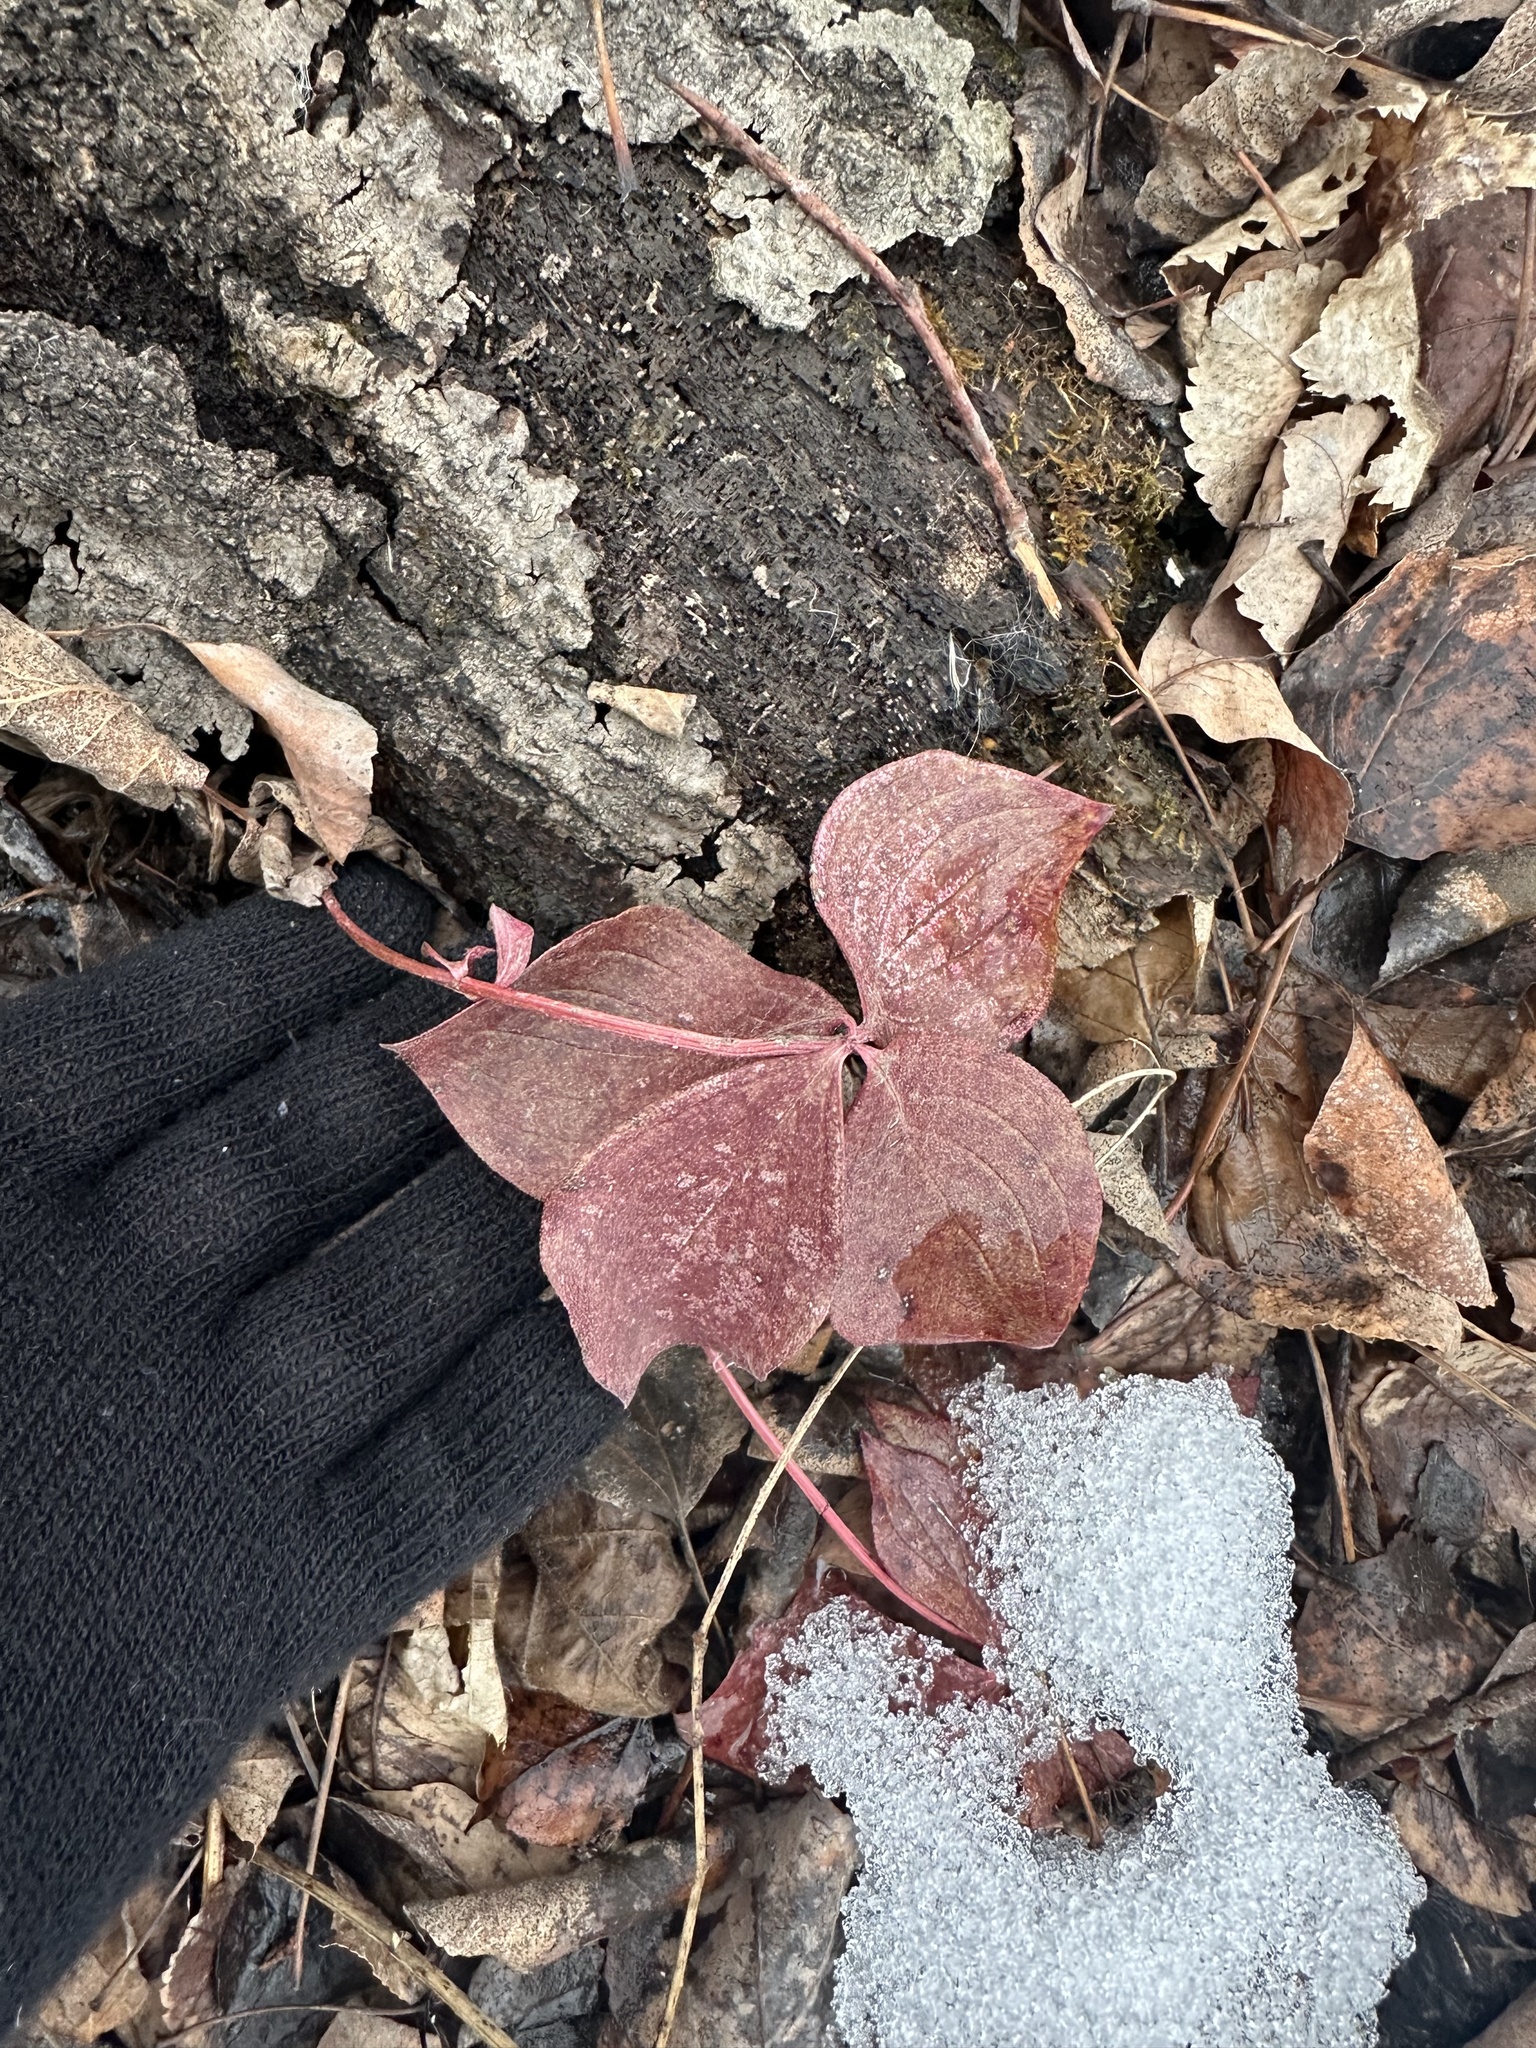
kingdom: Plantae
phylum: Tracheophyta
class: Magnoliopsida
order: Cornales
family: Cornaceae
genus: Cornus
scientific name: Cornus canadensis
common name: Creeping dogwood
